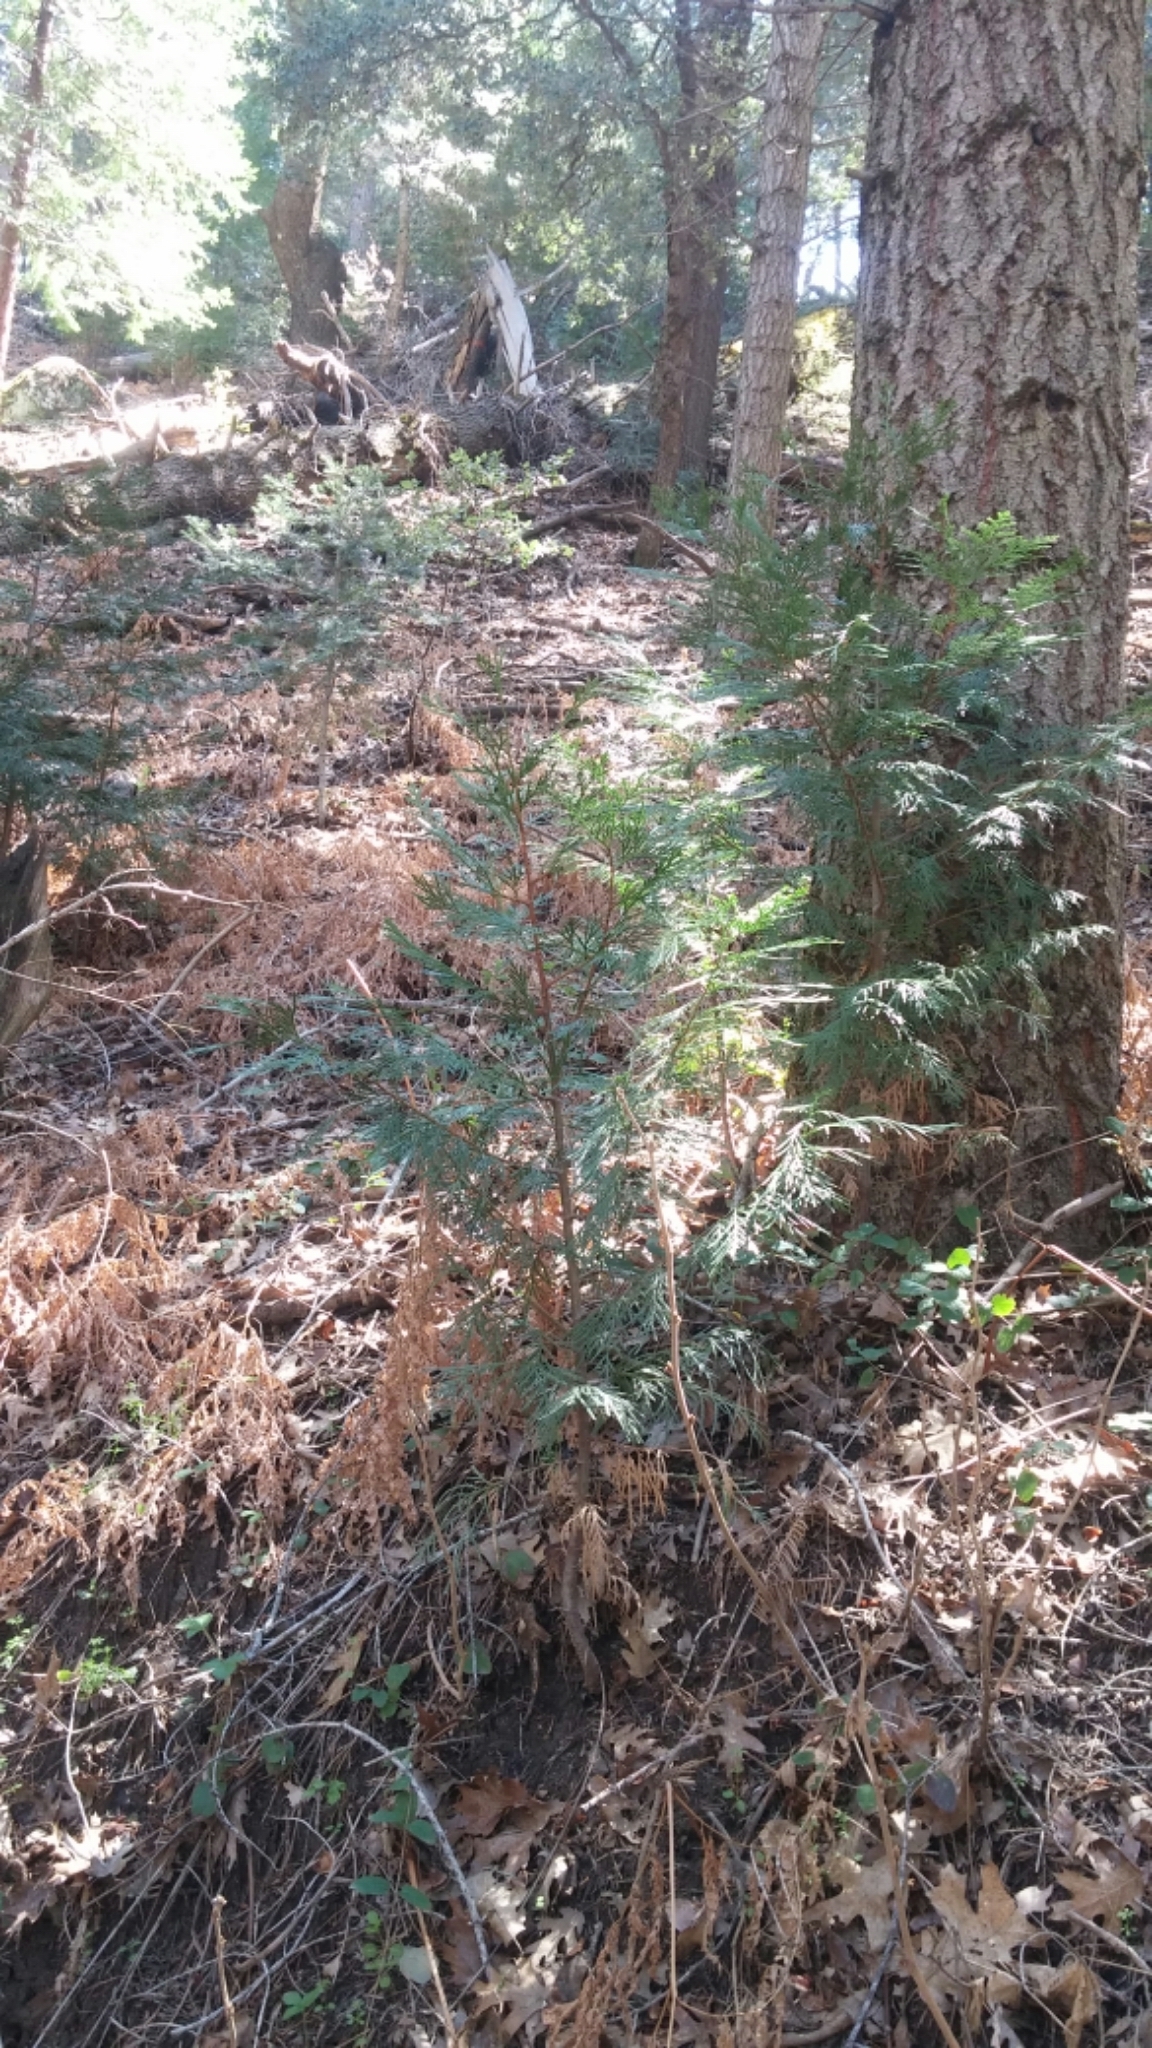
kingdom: Plantae
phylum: Tracheophyta
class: Pinopsida
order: Pinales
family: Cupressaceae
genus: Calocedrus
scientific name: Calocedrus decurrens
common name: Californian incense-cedar
